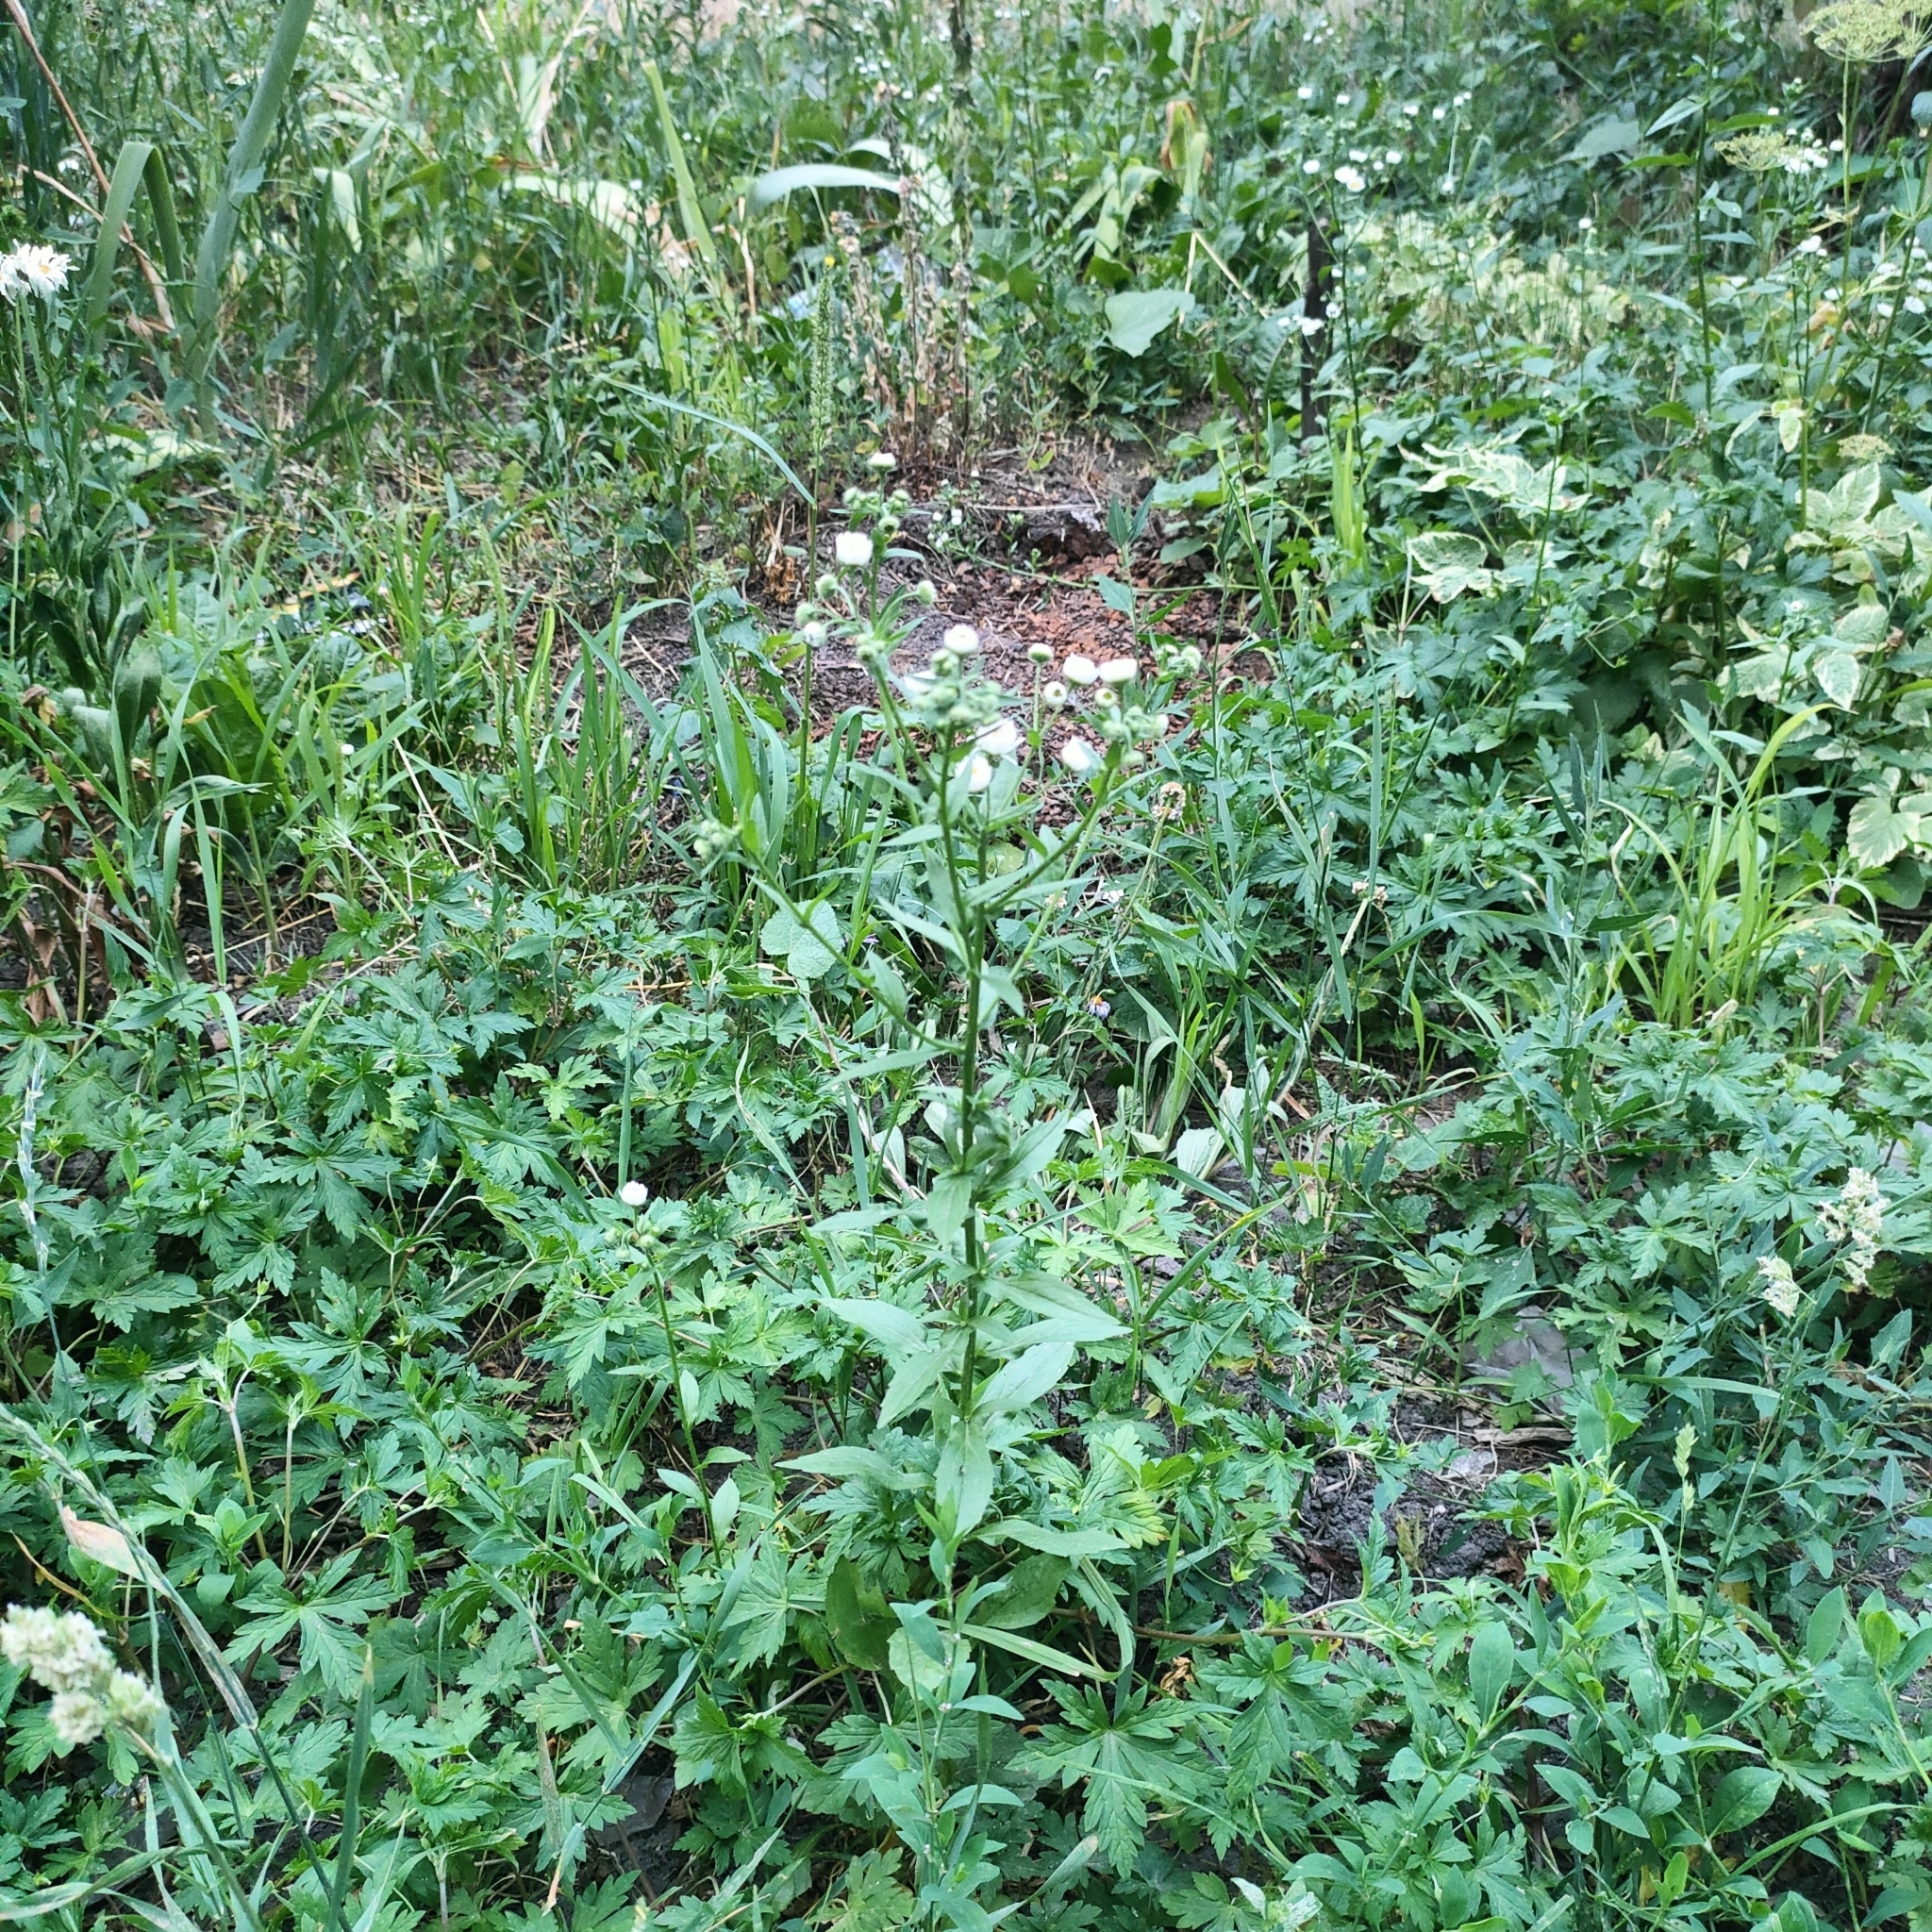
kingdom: Plantae
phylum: Tracheophyta
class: Magnoliopsida
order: Asterales
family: Asteraceae
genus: Erigeron
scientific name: Erigeron annuus
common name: Tall fleabane
